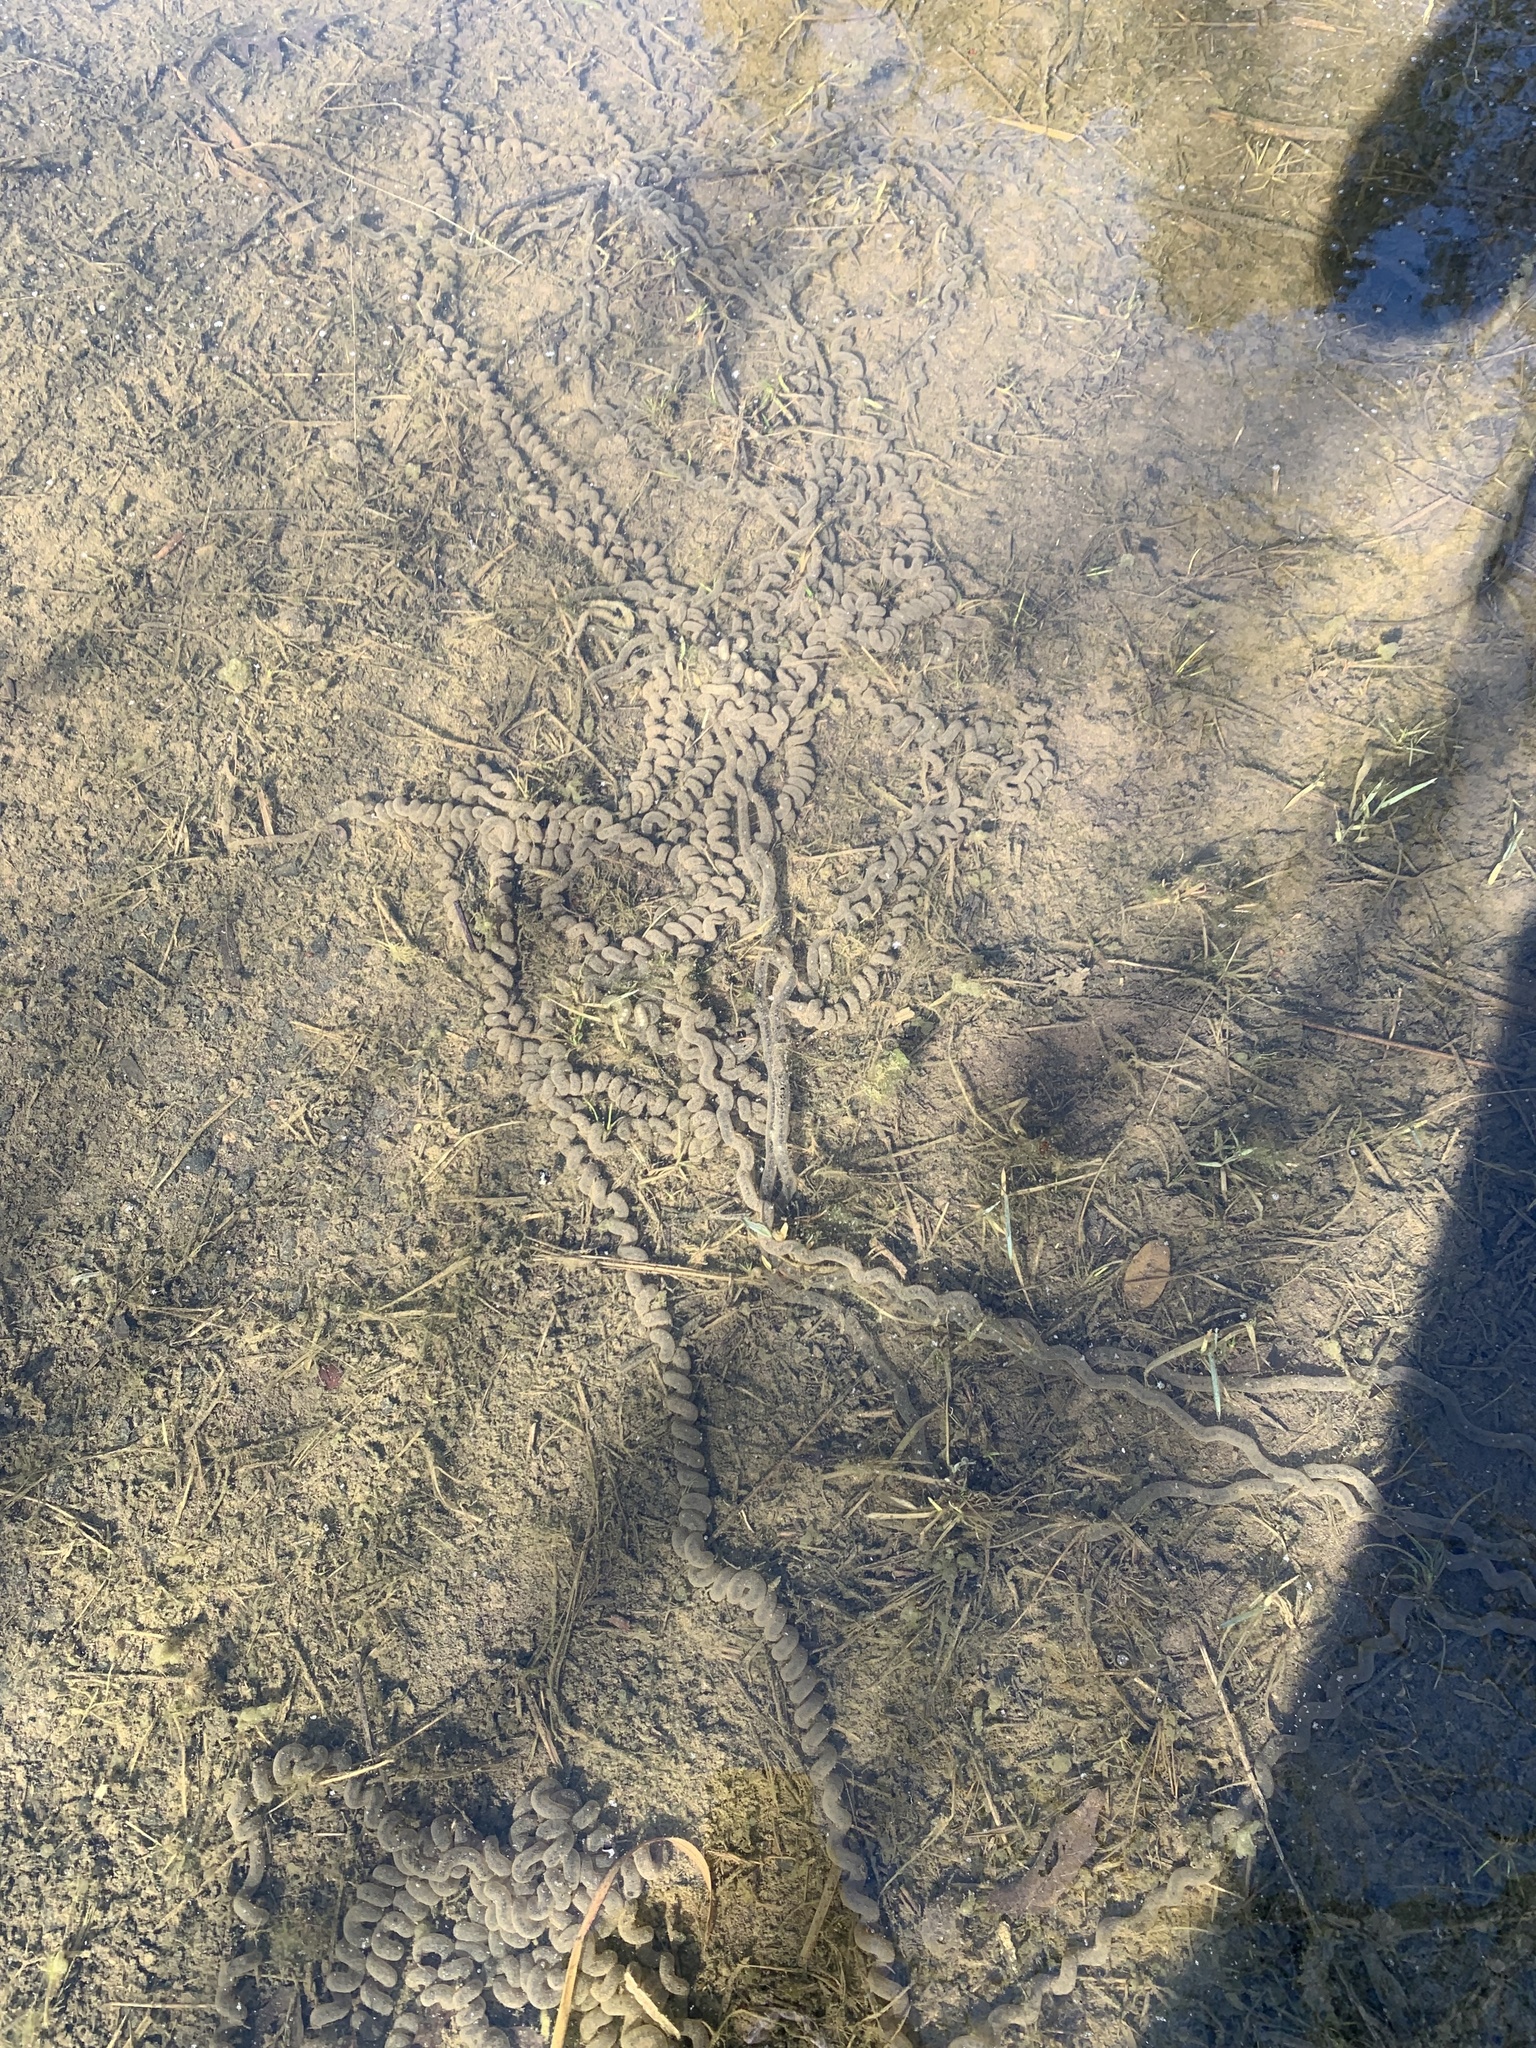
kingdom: Animalia
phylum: Chordata
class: Amphibia
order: Anura
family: Bufonidae
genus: Anaxyrus
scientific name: Anaxyrus americanus
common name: American toad
